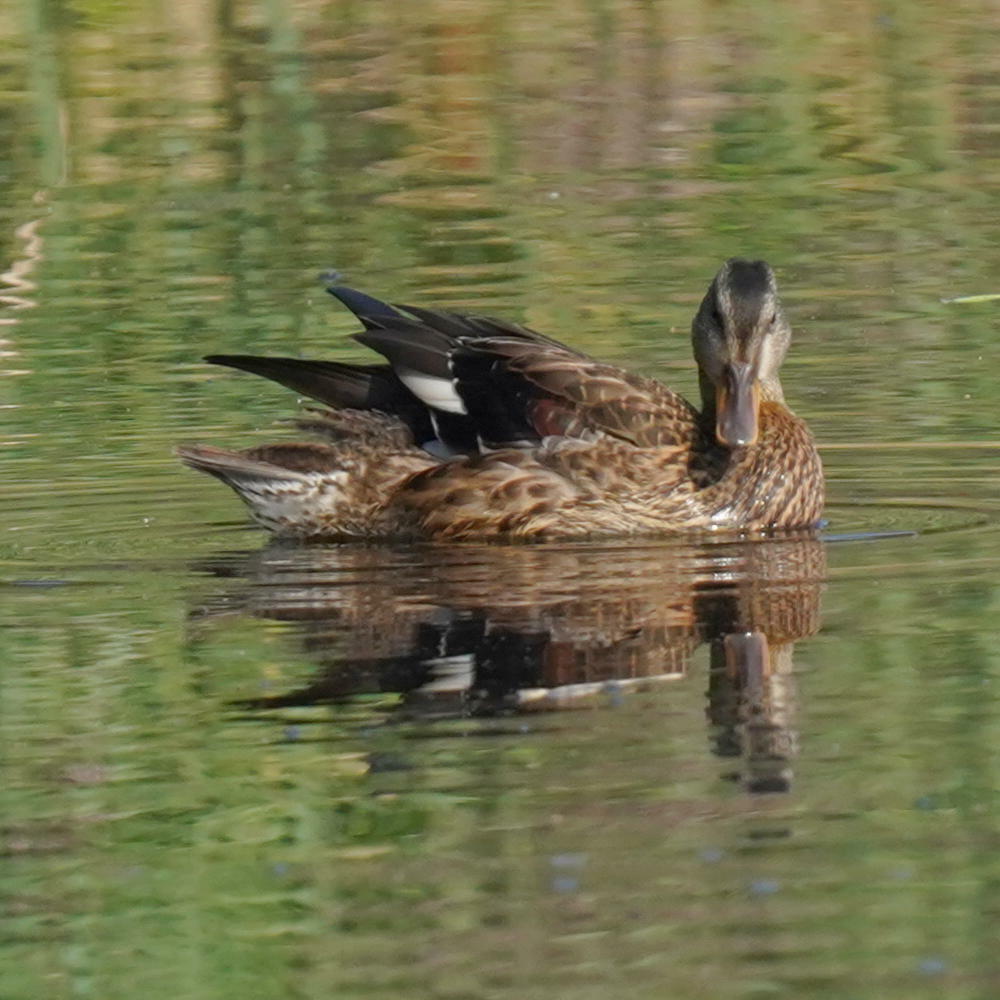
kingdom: Animalia
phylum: Chordata
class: Aves
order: Anseriformes
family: Anatidae
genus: Mareca
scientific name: Mareca strepera
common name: Gadwall
